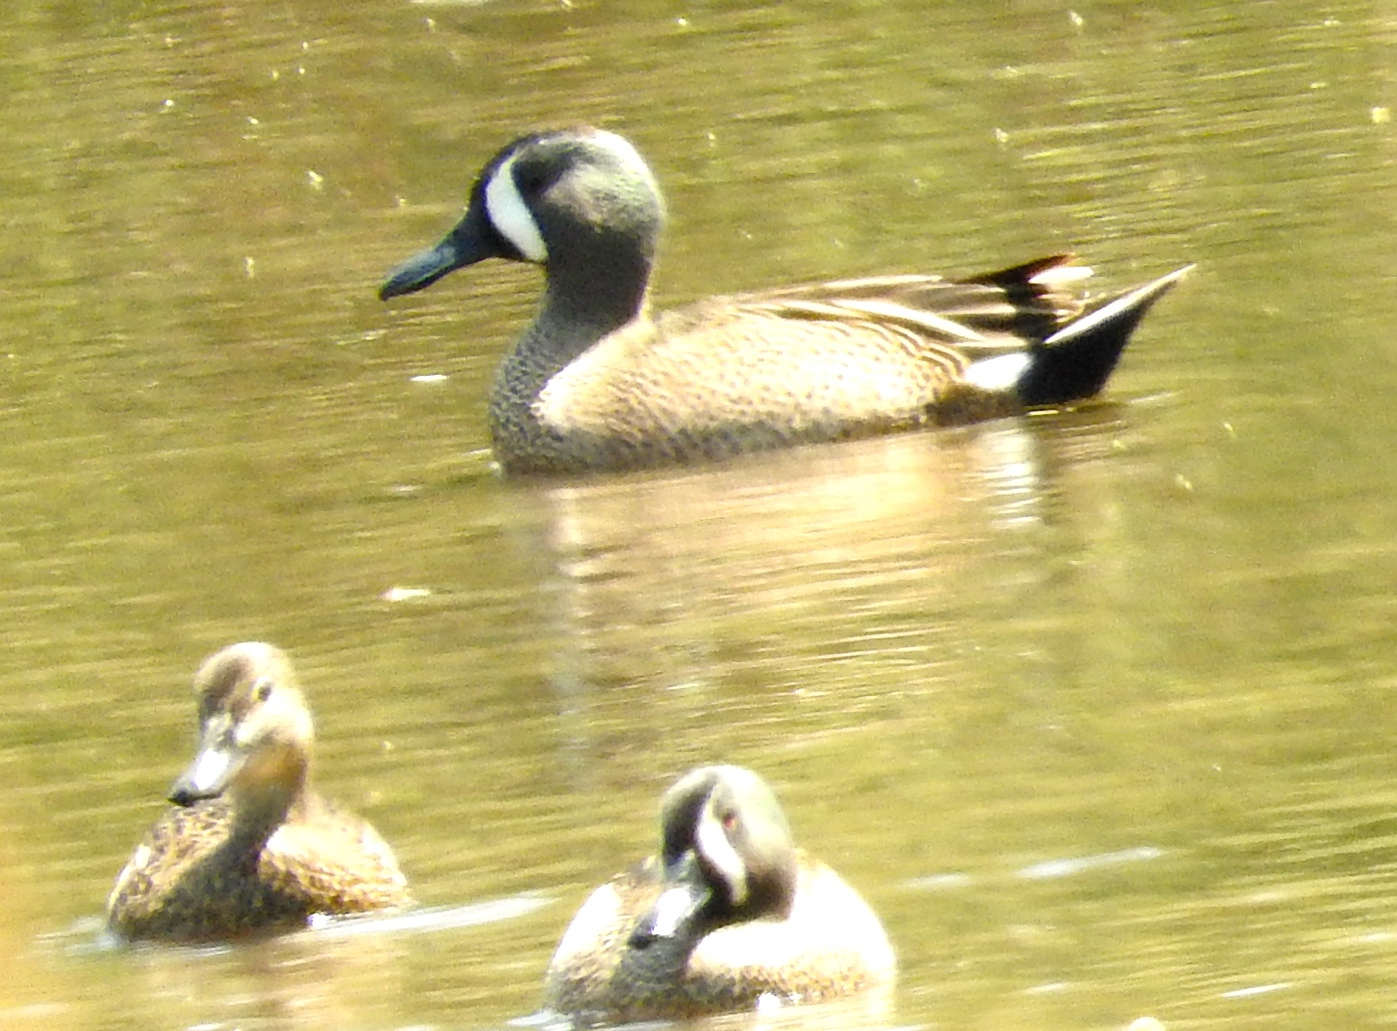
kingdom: Animalia
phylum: Chordata
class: Aves
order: Anseriformes
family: Anatidae
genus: Spatula
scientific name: Spatula discors
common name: Blue-winged teal
